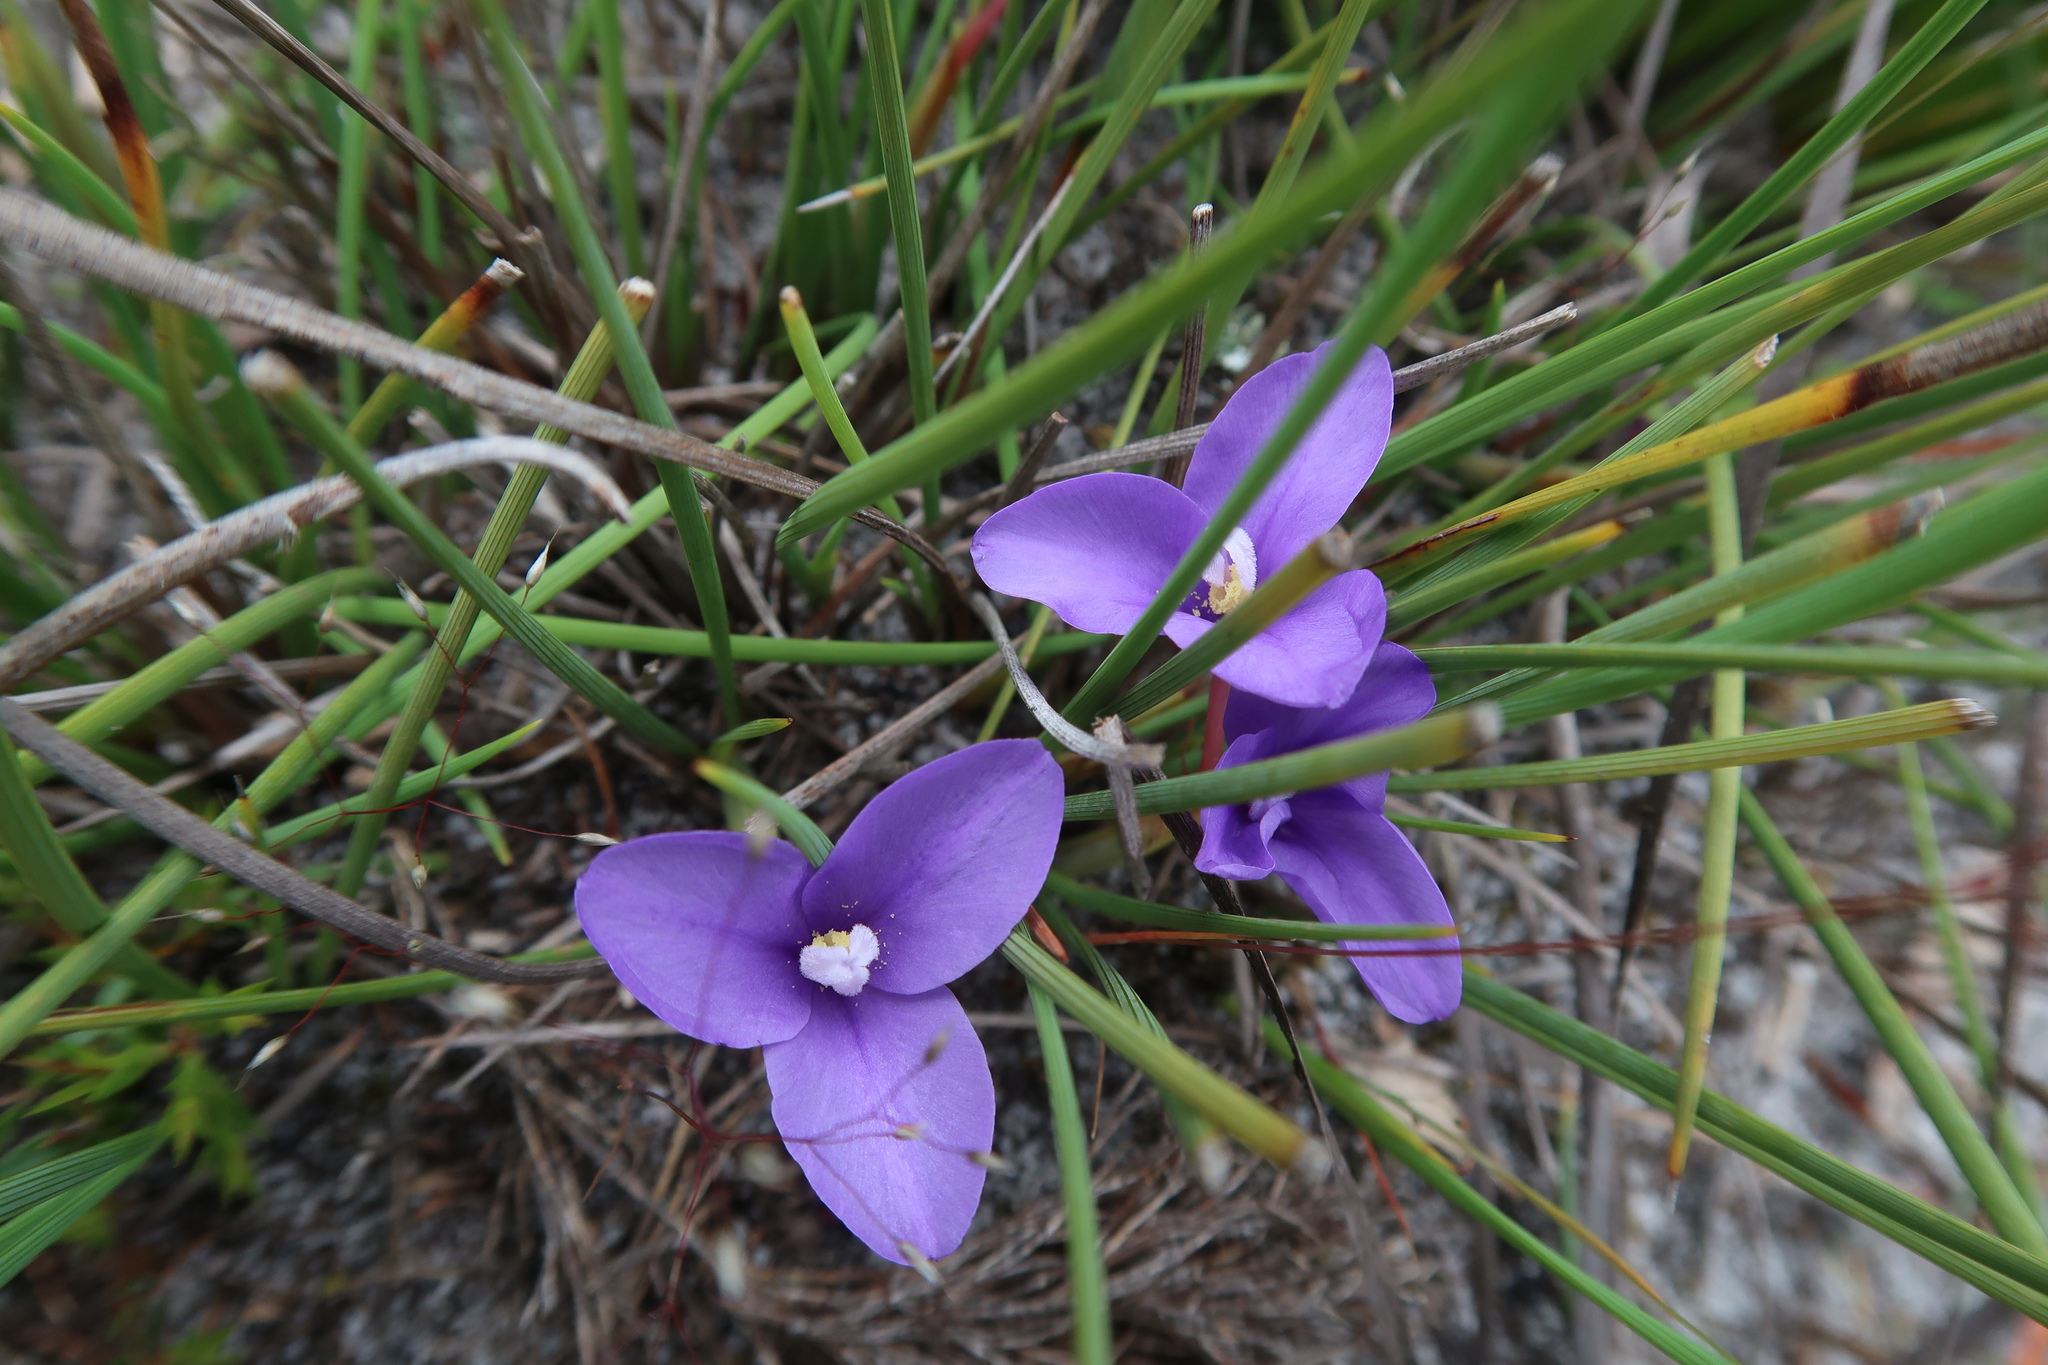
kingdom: Plantae
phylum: Tracheophyta
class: Liliopsida
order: Asparagales
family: Iridaceae
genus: Patersonia
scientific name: Patersonia fragilis
